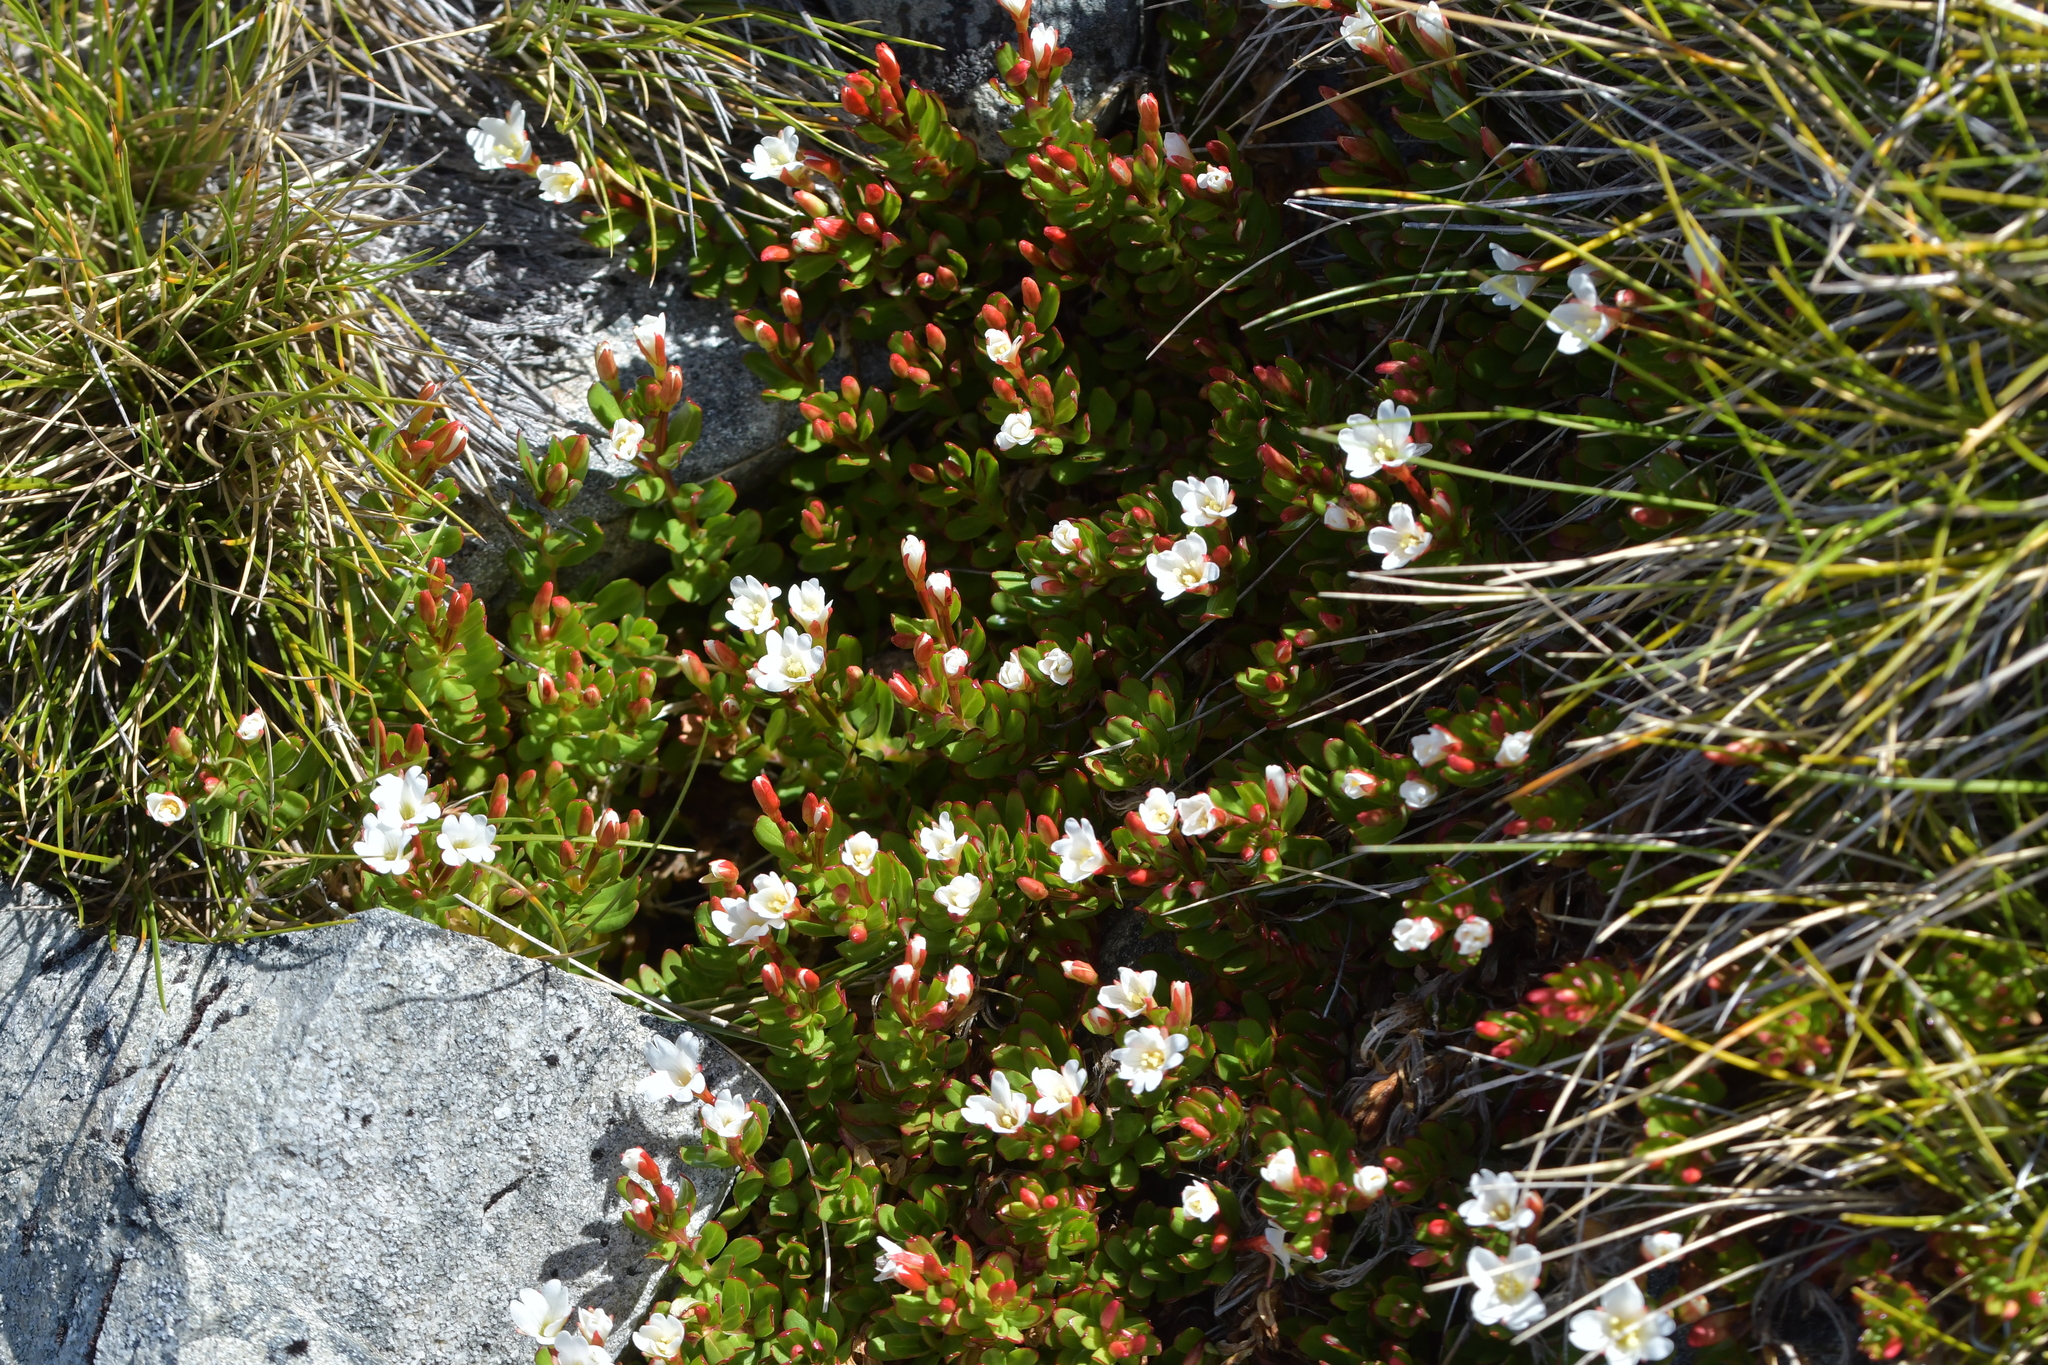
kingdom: Plantae
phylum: Tracheophyta
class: Magnoliopsida
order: Myrtales
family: Onagraceae
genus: Epilobium
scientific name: Epilobium glabellum
